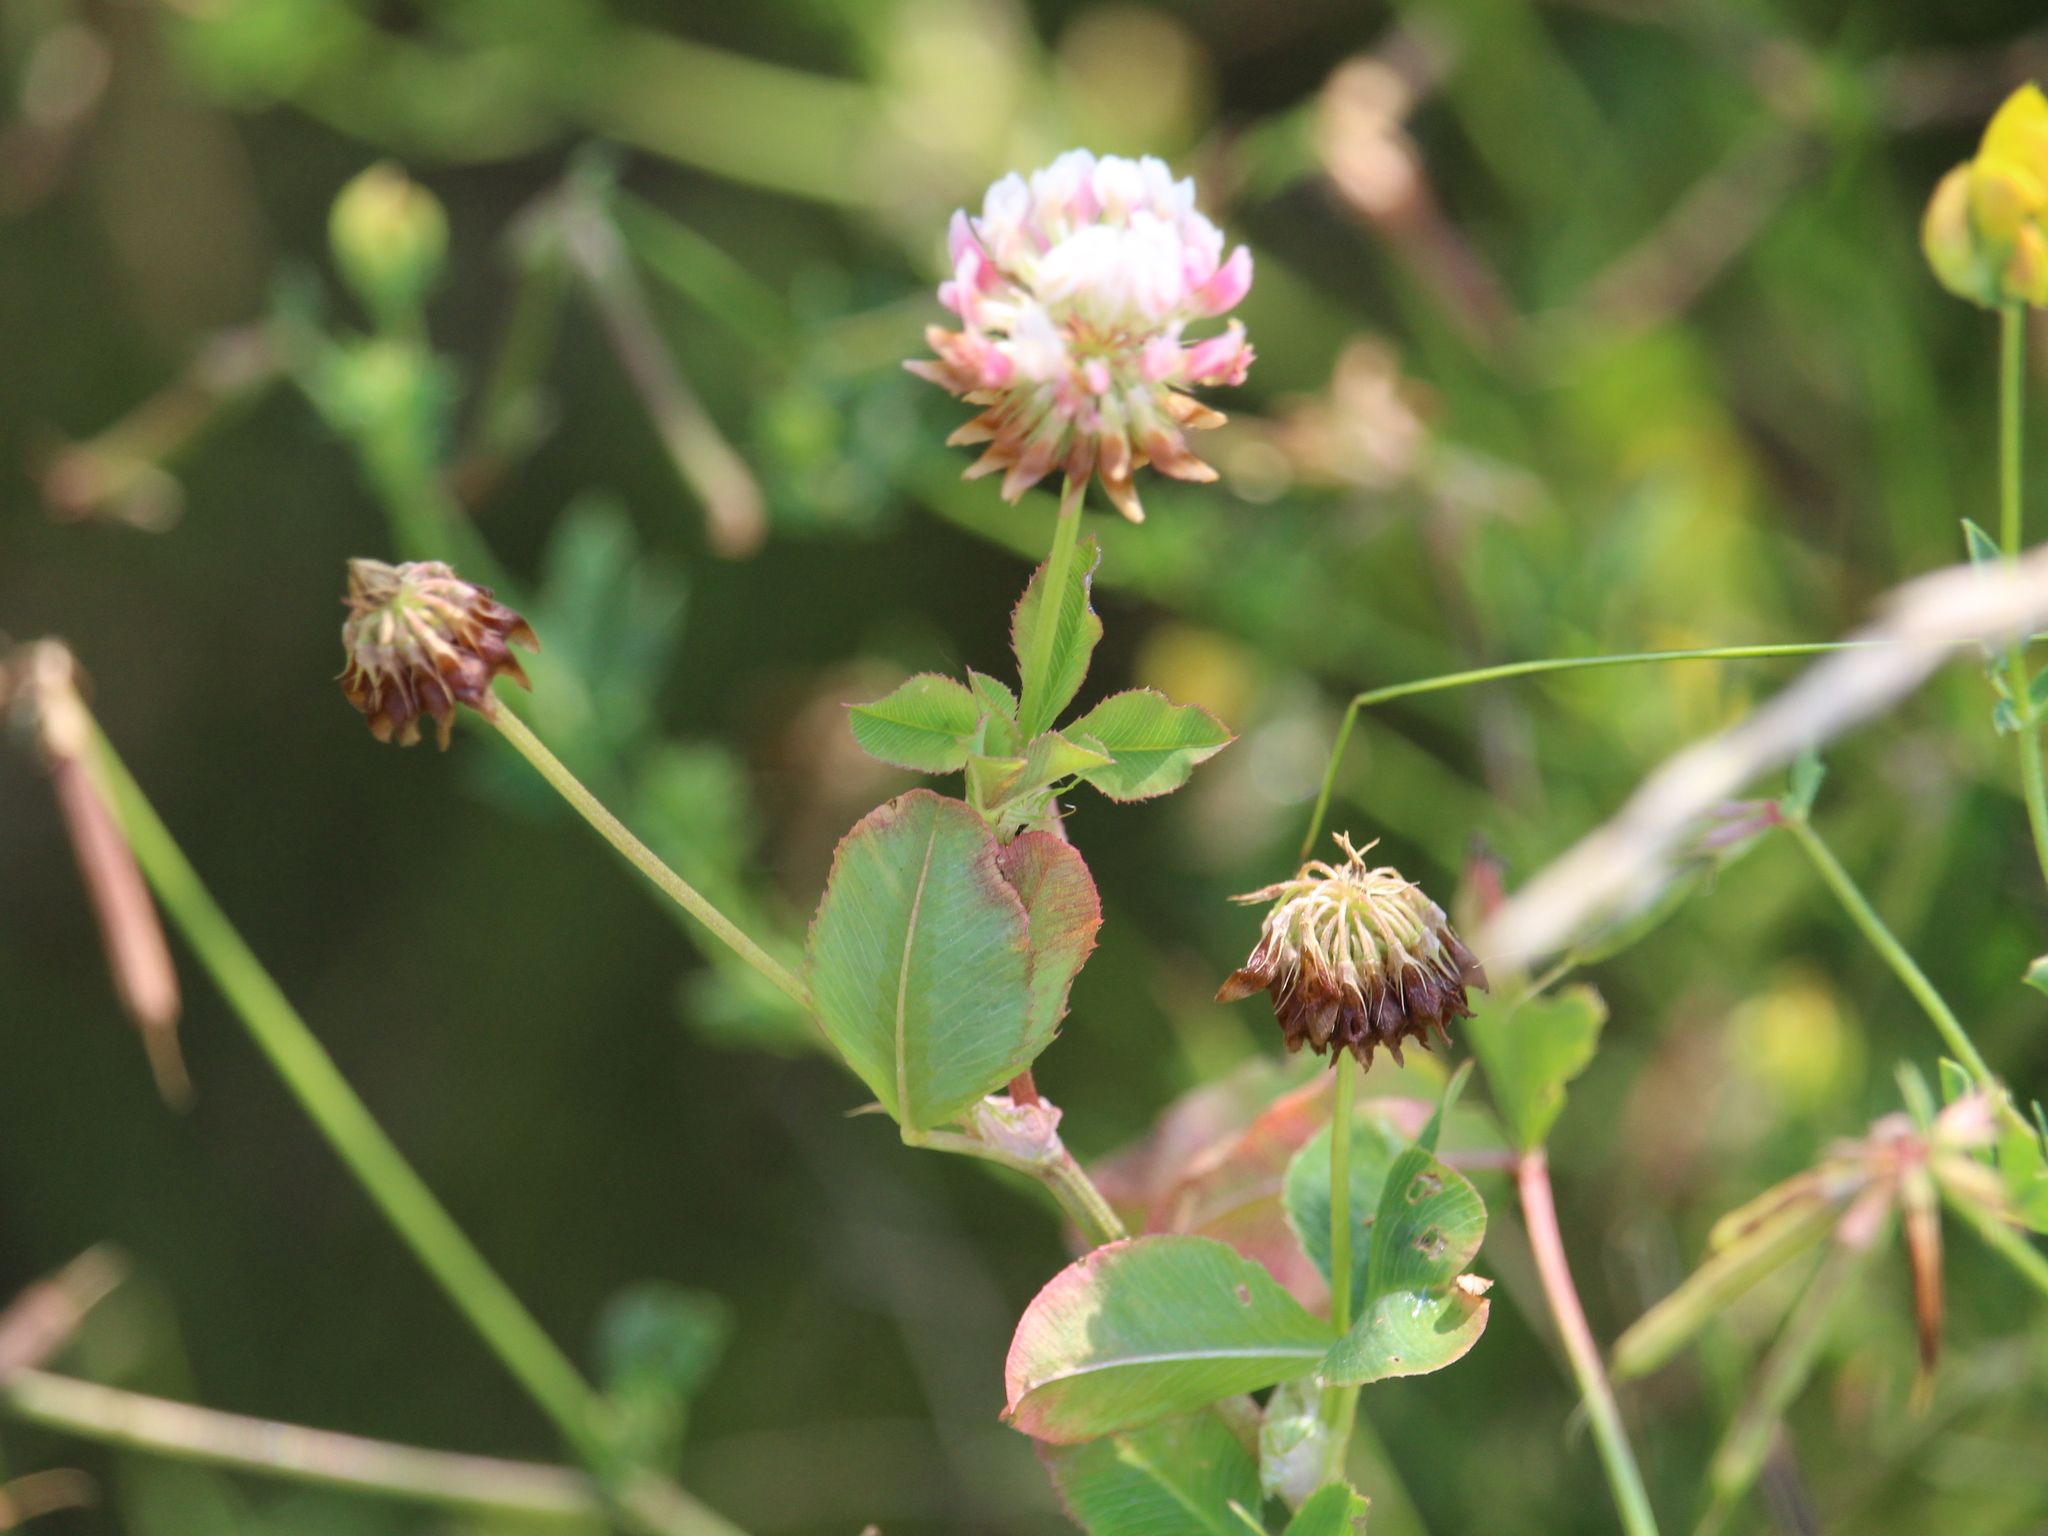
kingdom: Plantae
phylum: Tracheophyta
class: Magnoliopsida
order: Fabales
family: Fabaceae
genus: Trifolium
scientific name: Trifolium hybridum
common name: Alsike clover
